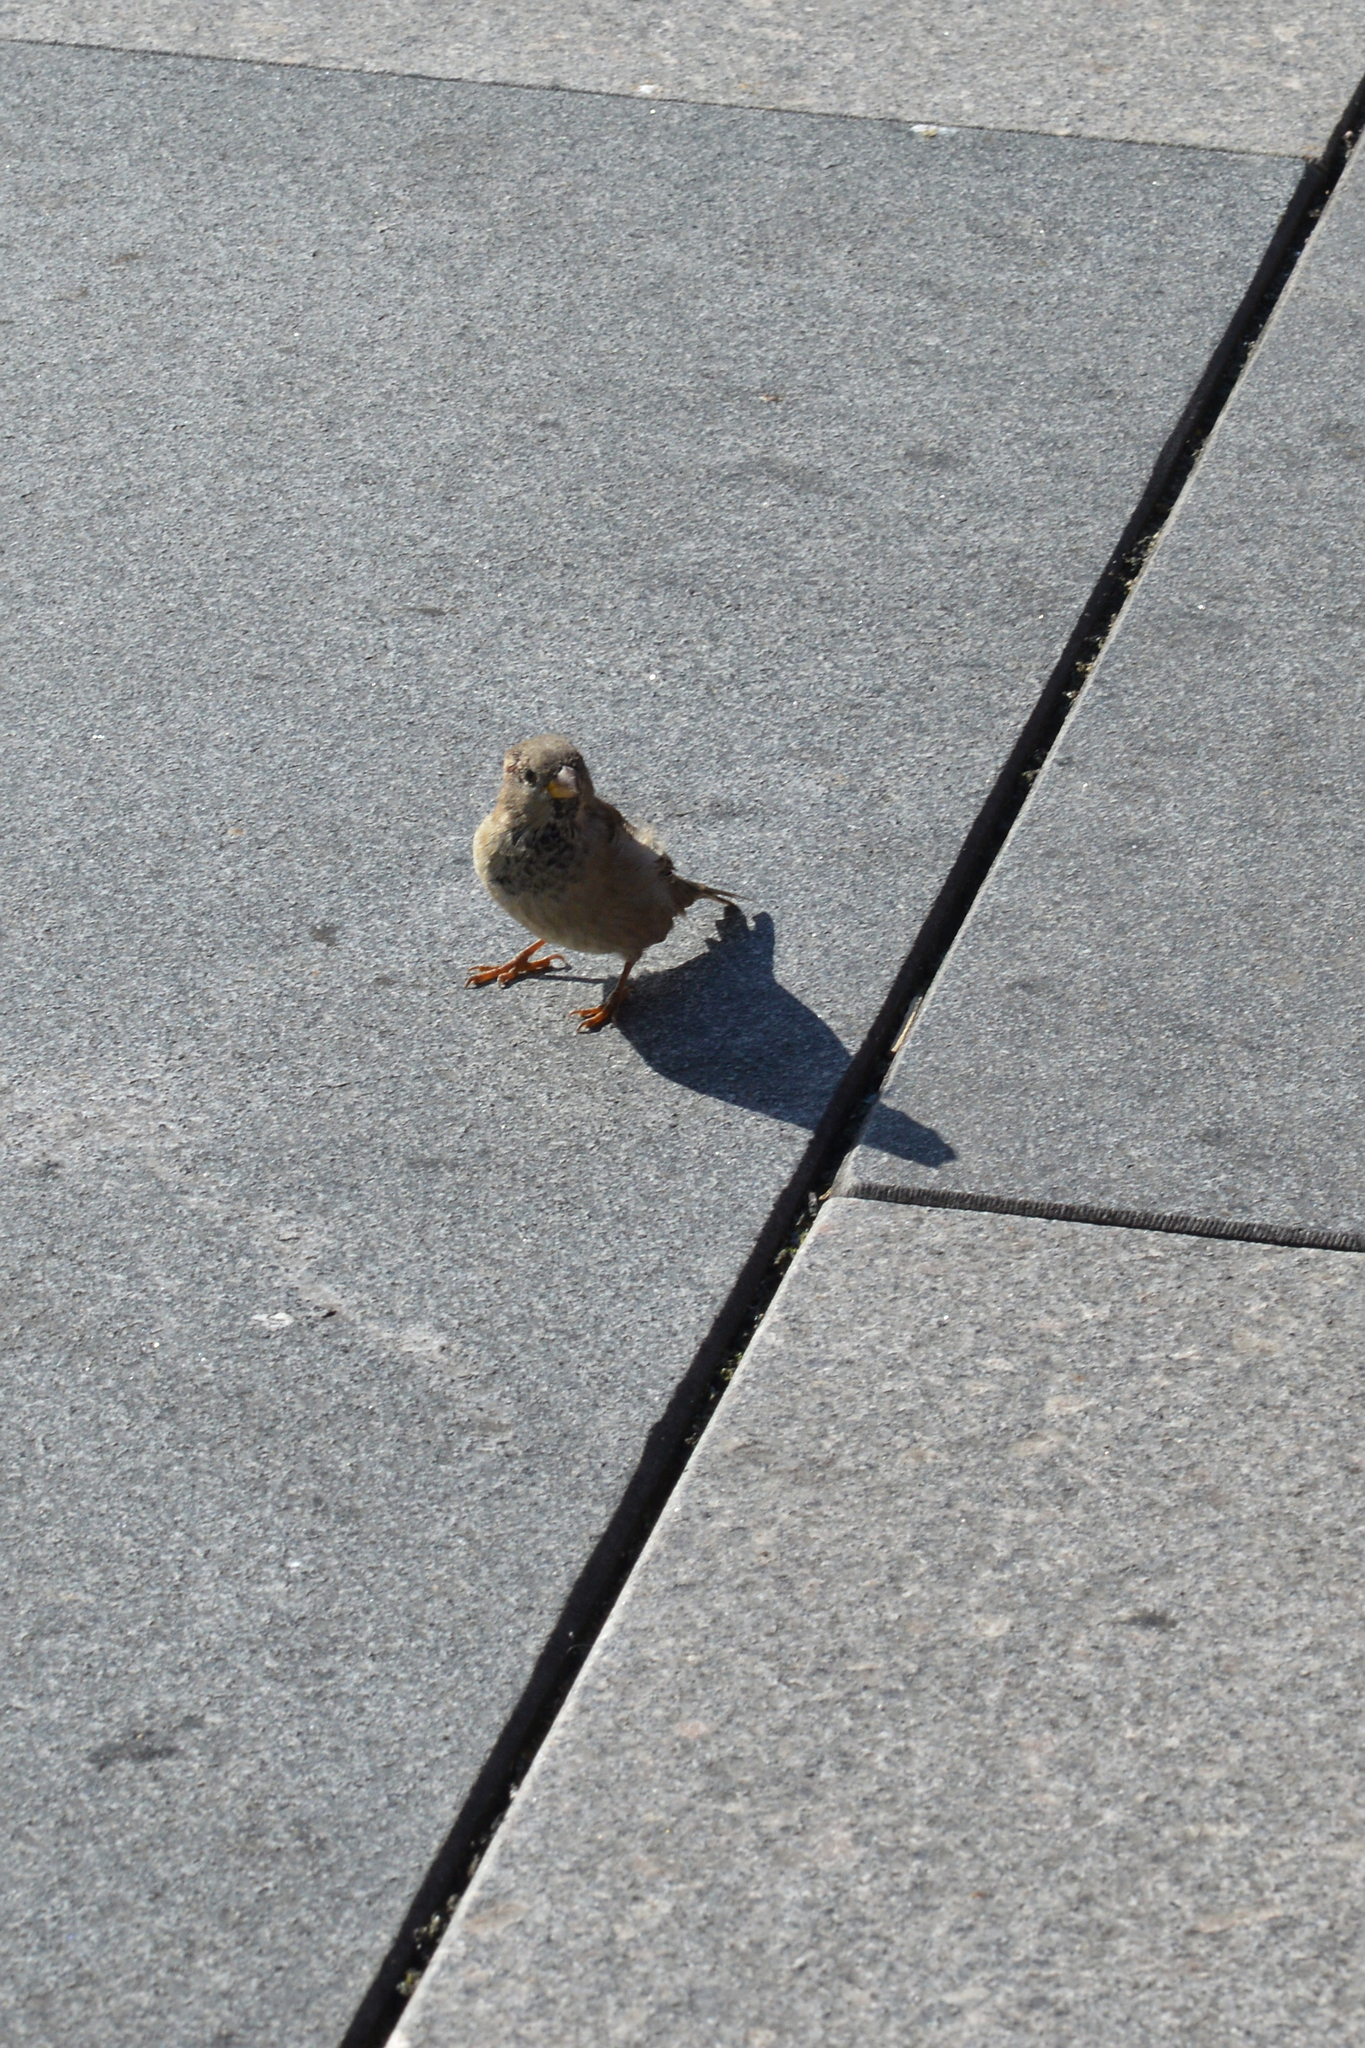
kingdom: Animalia
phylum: Chordata
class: Aves
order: Passeriformes
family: Passeridae
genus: Passer
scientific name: Passer domesticus
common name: House sparrow
